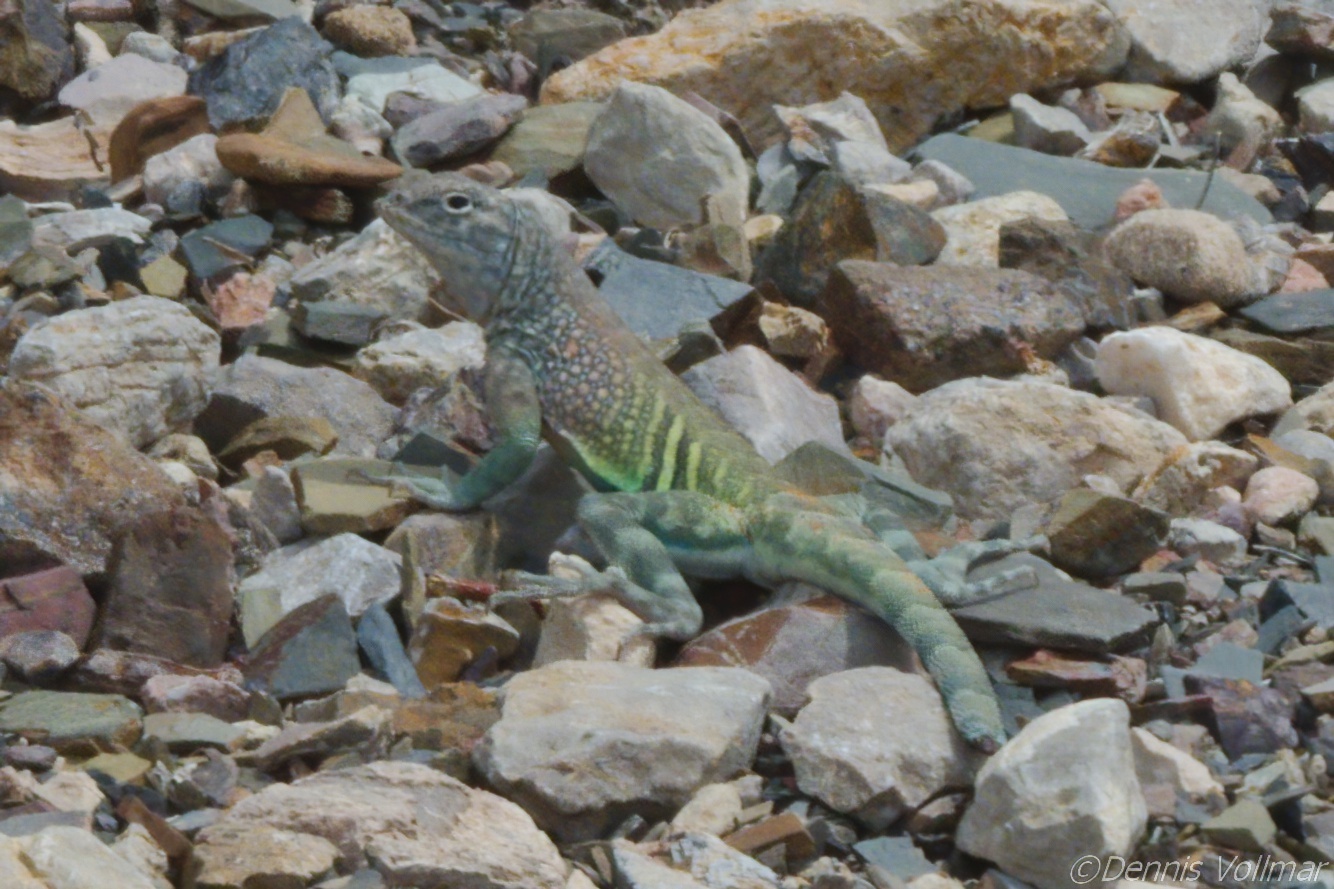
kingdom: Animalia
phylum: Chordata
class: Squamata
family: Phrynosomatidae
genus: Cophosaurus
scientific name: Cophosaurus texanus
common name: Greater earless lizard
